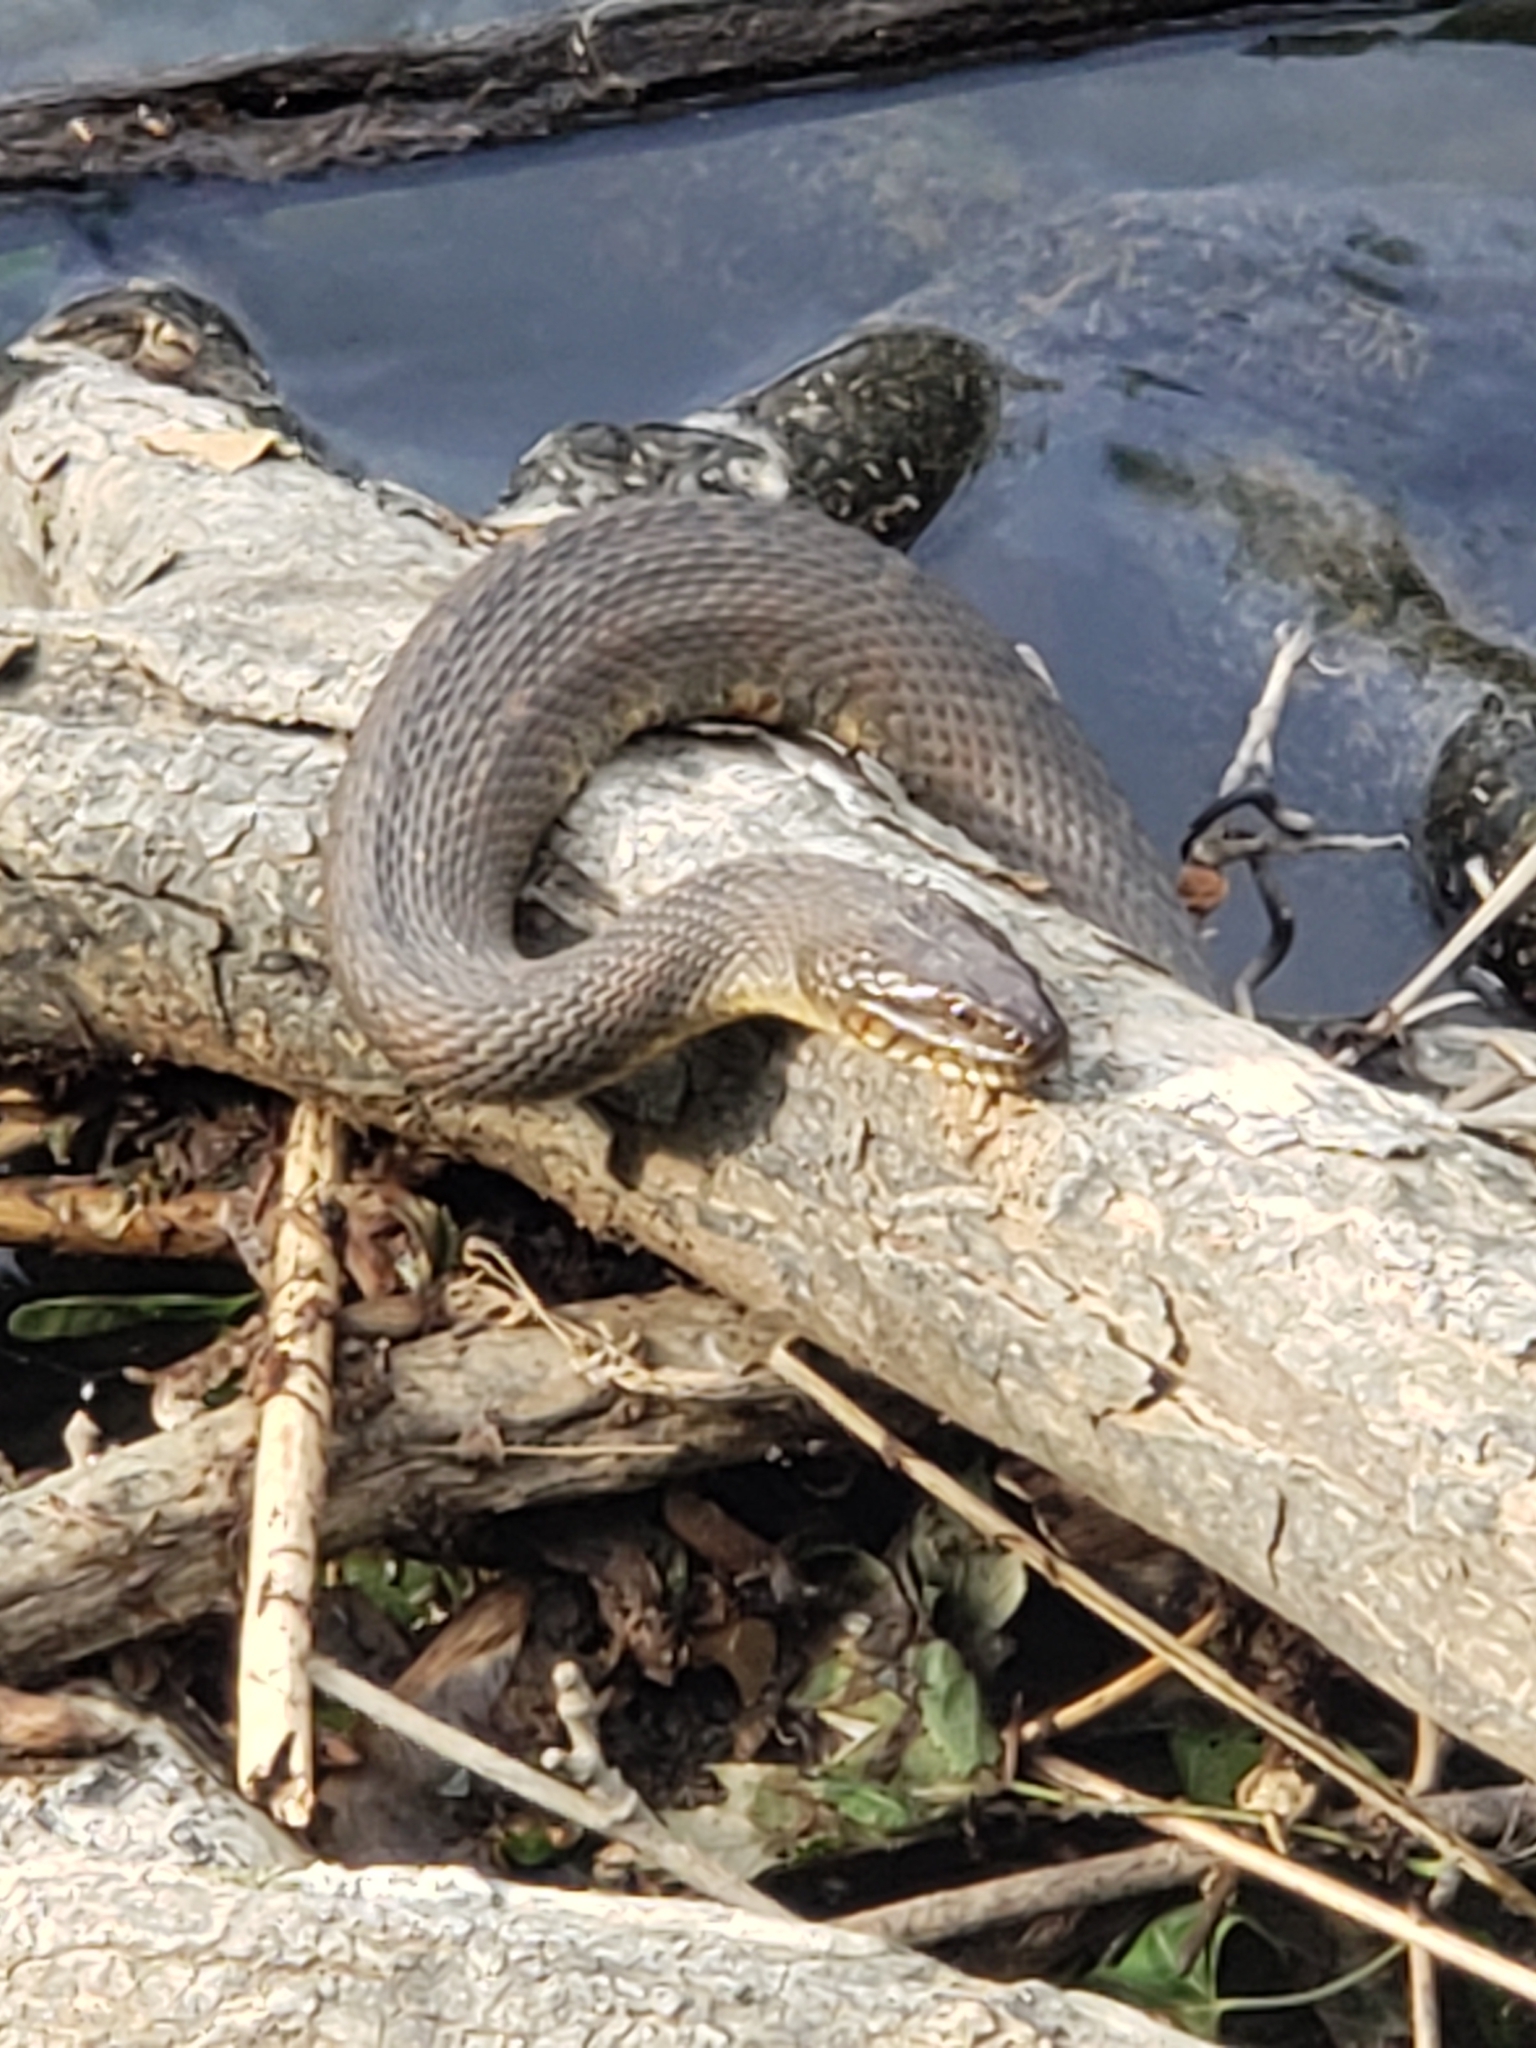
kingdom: Animalia
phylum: Chordata
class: Squamata
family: Colubridae
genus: Nerodia
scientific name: Nerodia sipedon
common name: Northern water snake
